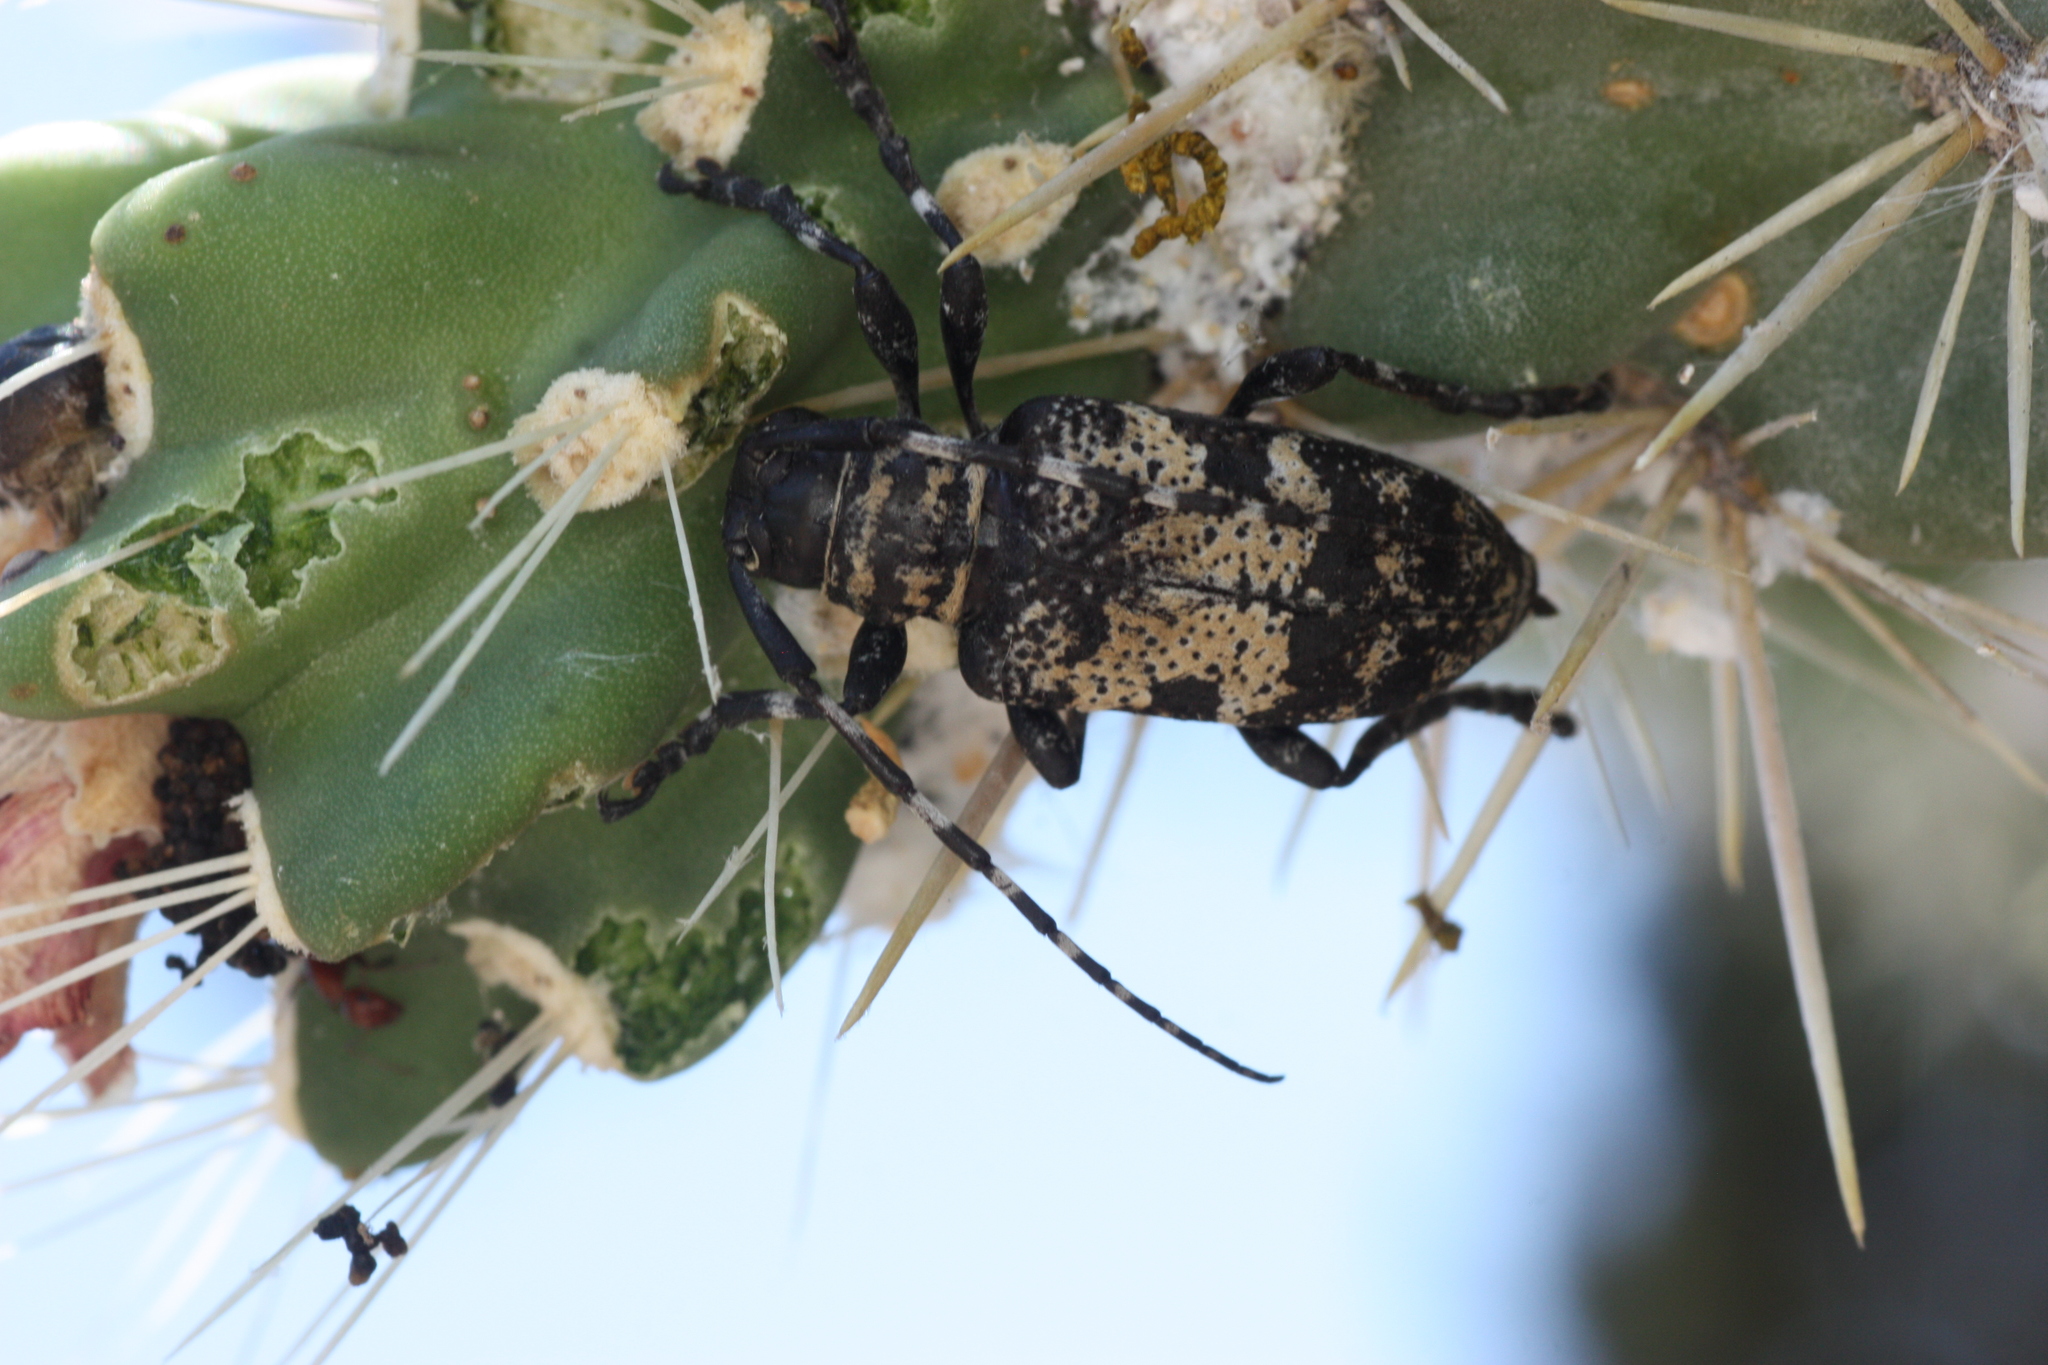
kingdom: Animalia
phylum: Arthropoda
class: Insecta
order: Coleoptera
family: Cerambycidae
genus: Coenopoeus
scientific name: Coenopoeus palmeri
